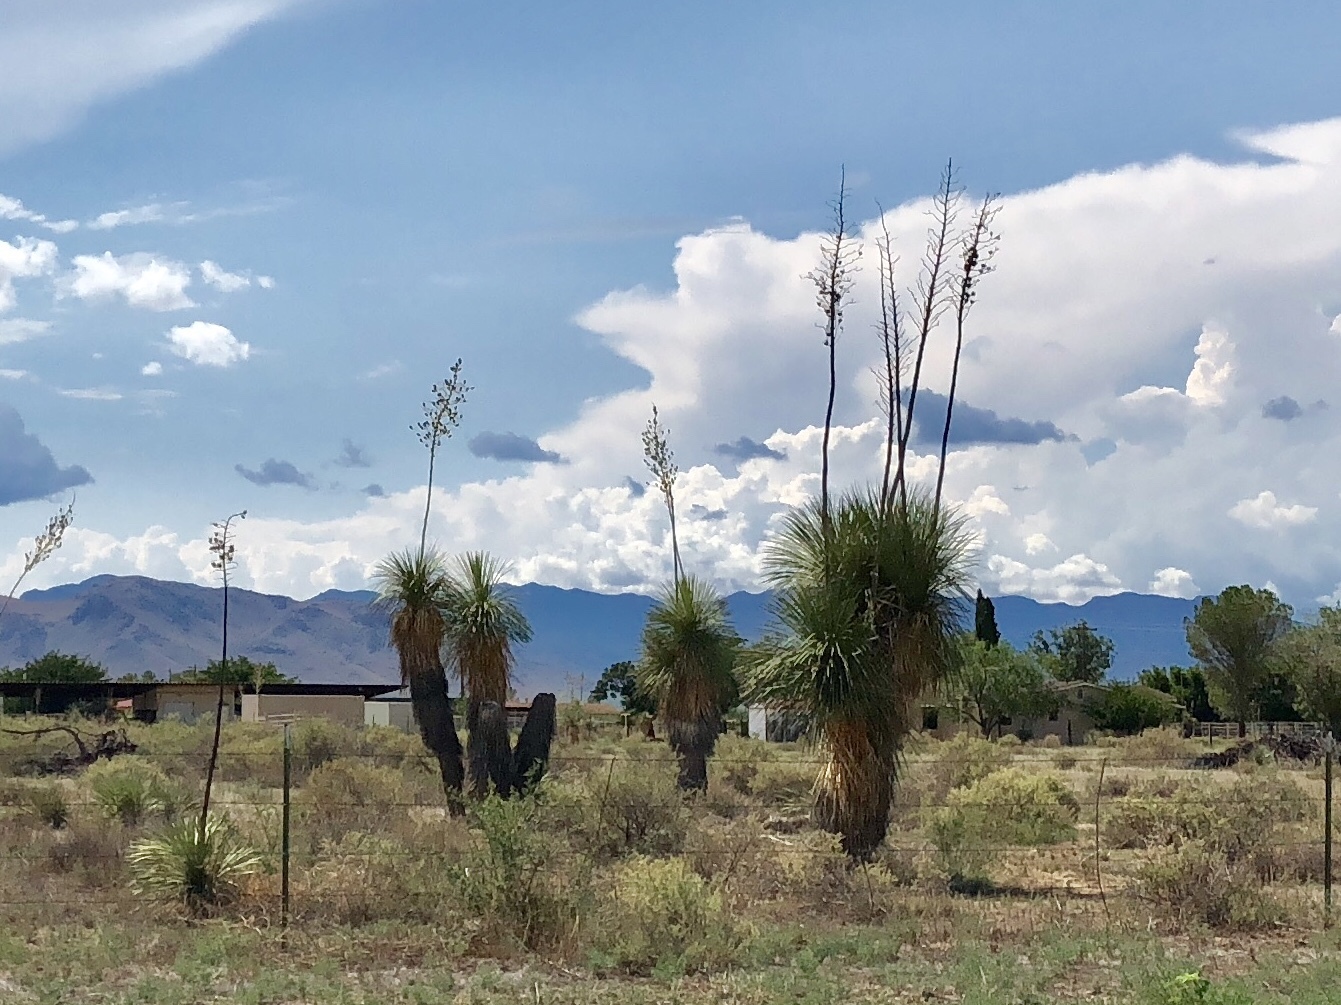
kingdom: Plantae
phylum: Tracheophyta
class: Liliopsida
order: Asparagales
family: Asparagaceae
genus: Yucca
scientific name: Yucca elata
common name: Palmella
